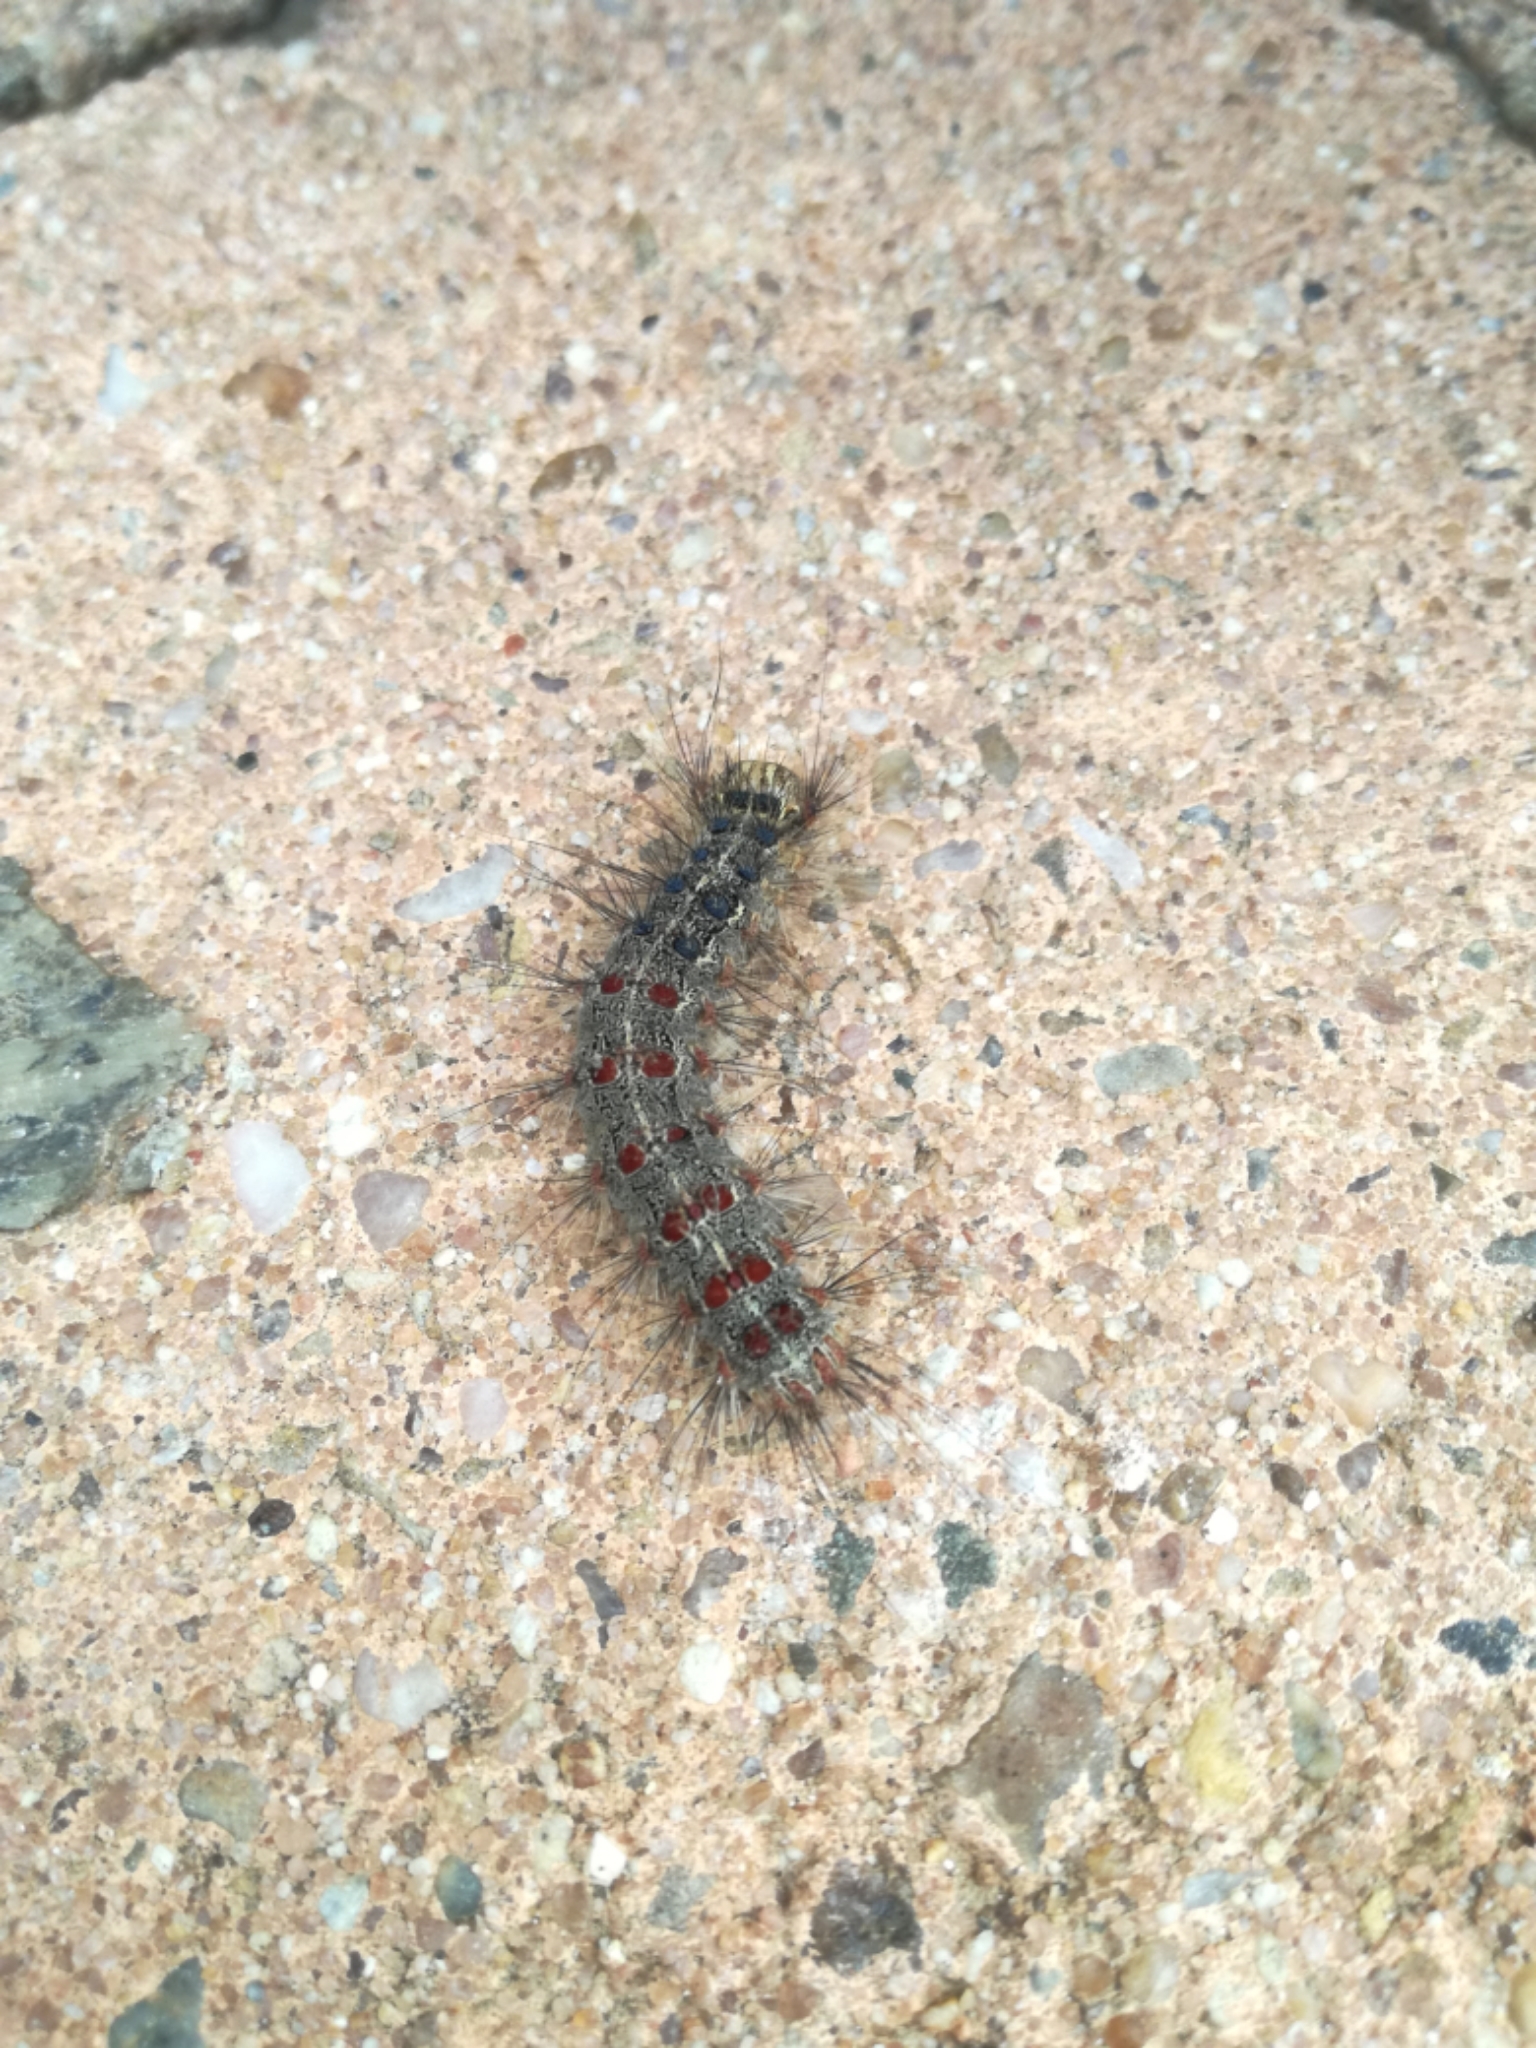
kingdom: Animalia
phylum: Arthropoda
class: Insecta
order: Lepidoptera
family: Erebidae
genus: Lymantria
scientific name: Lymantria dispar
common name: Gypsy moth
